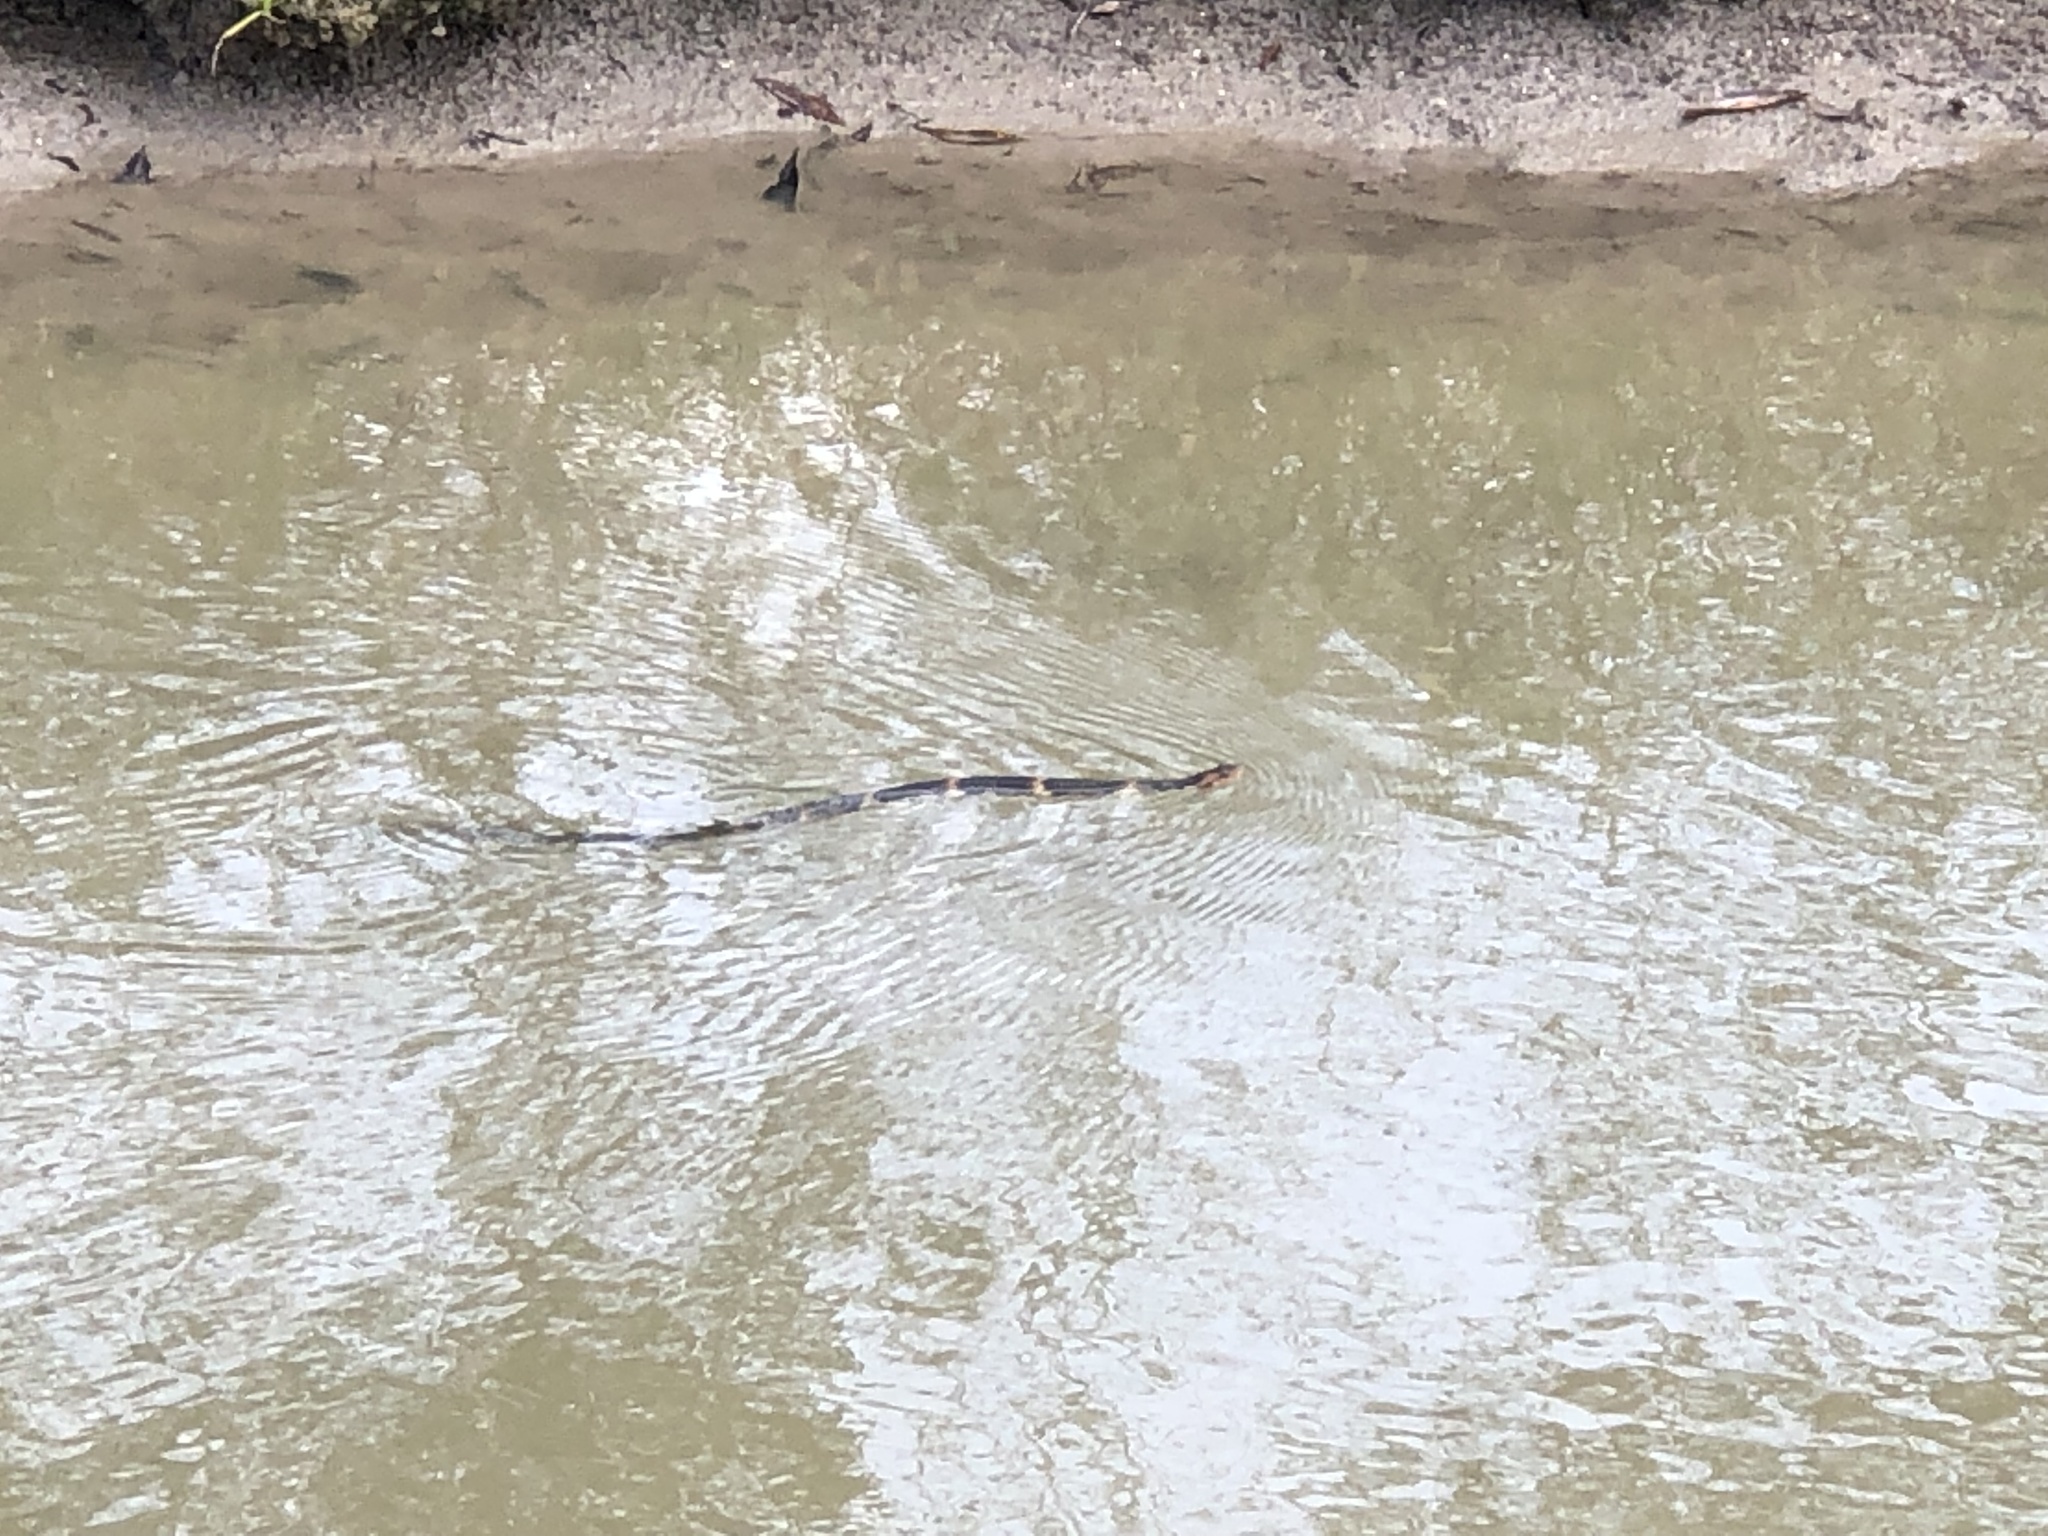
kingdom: Animalia
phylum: Chordata
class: Squamata
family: Colubridae
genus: Nerodia
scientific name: Nerodia fasciata
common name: Southern water snake
